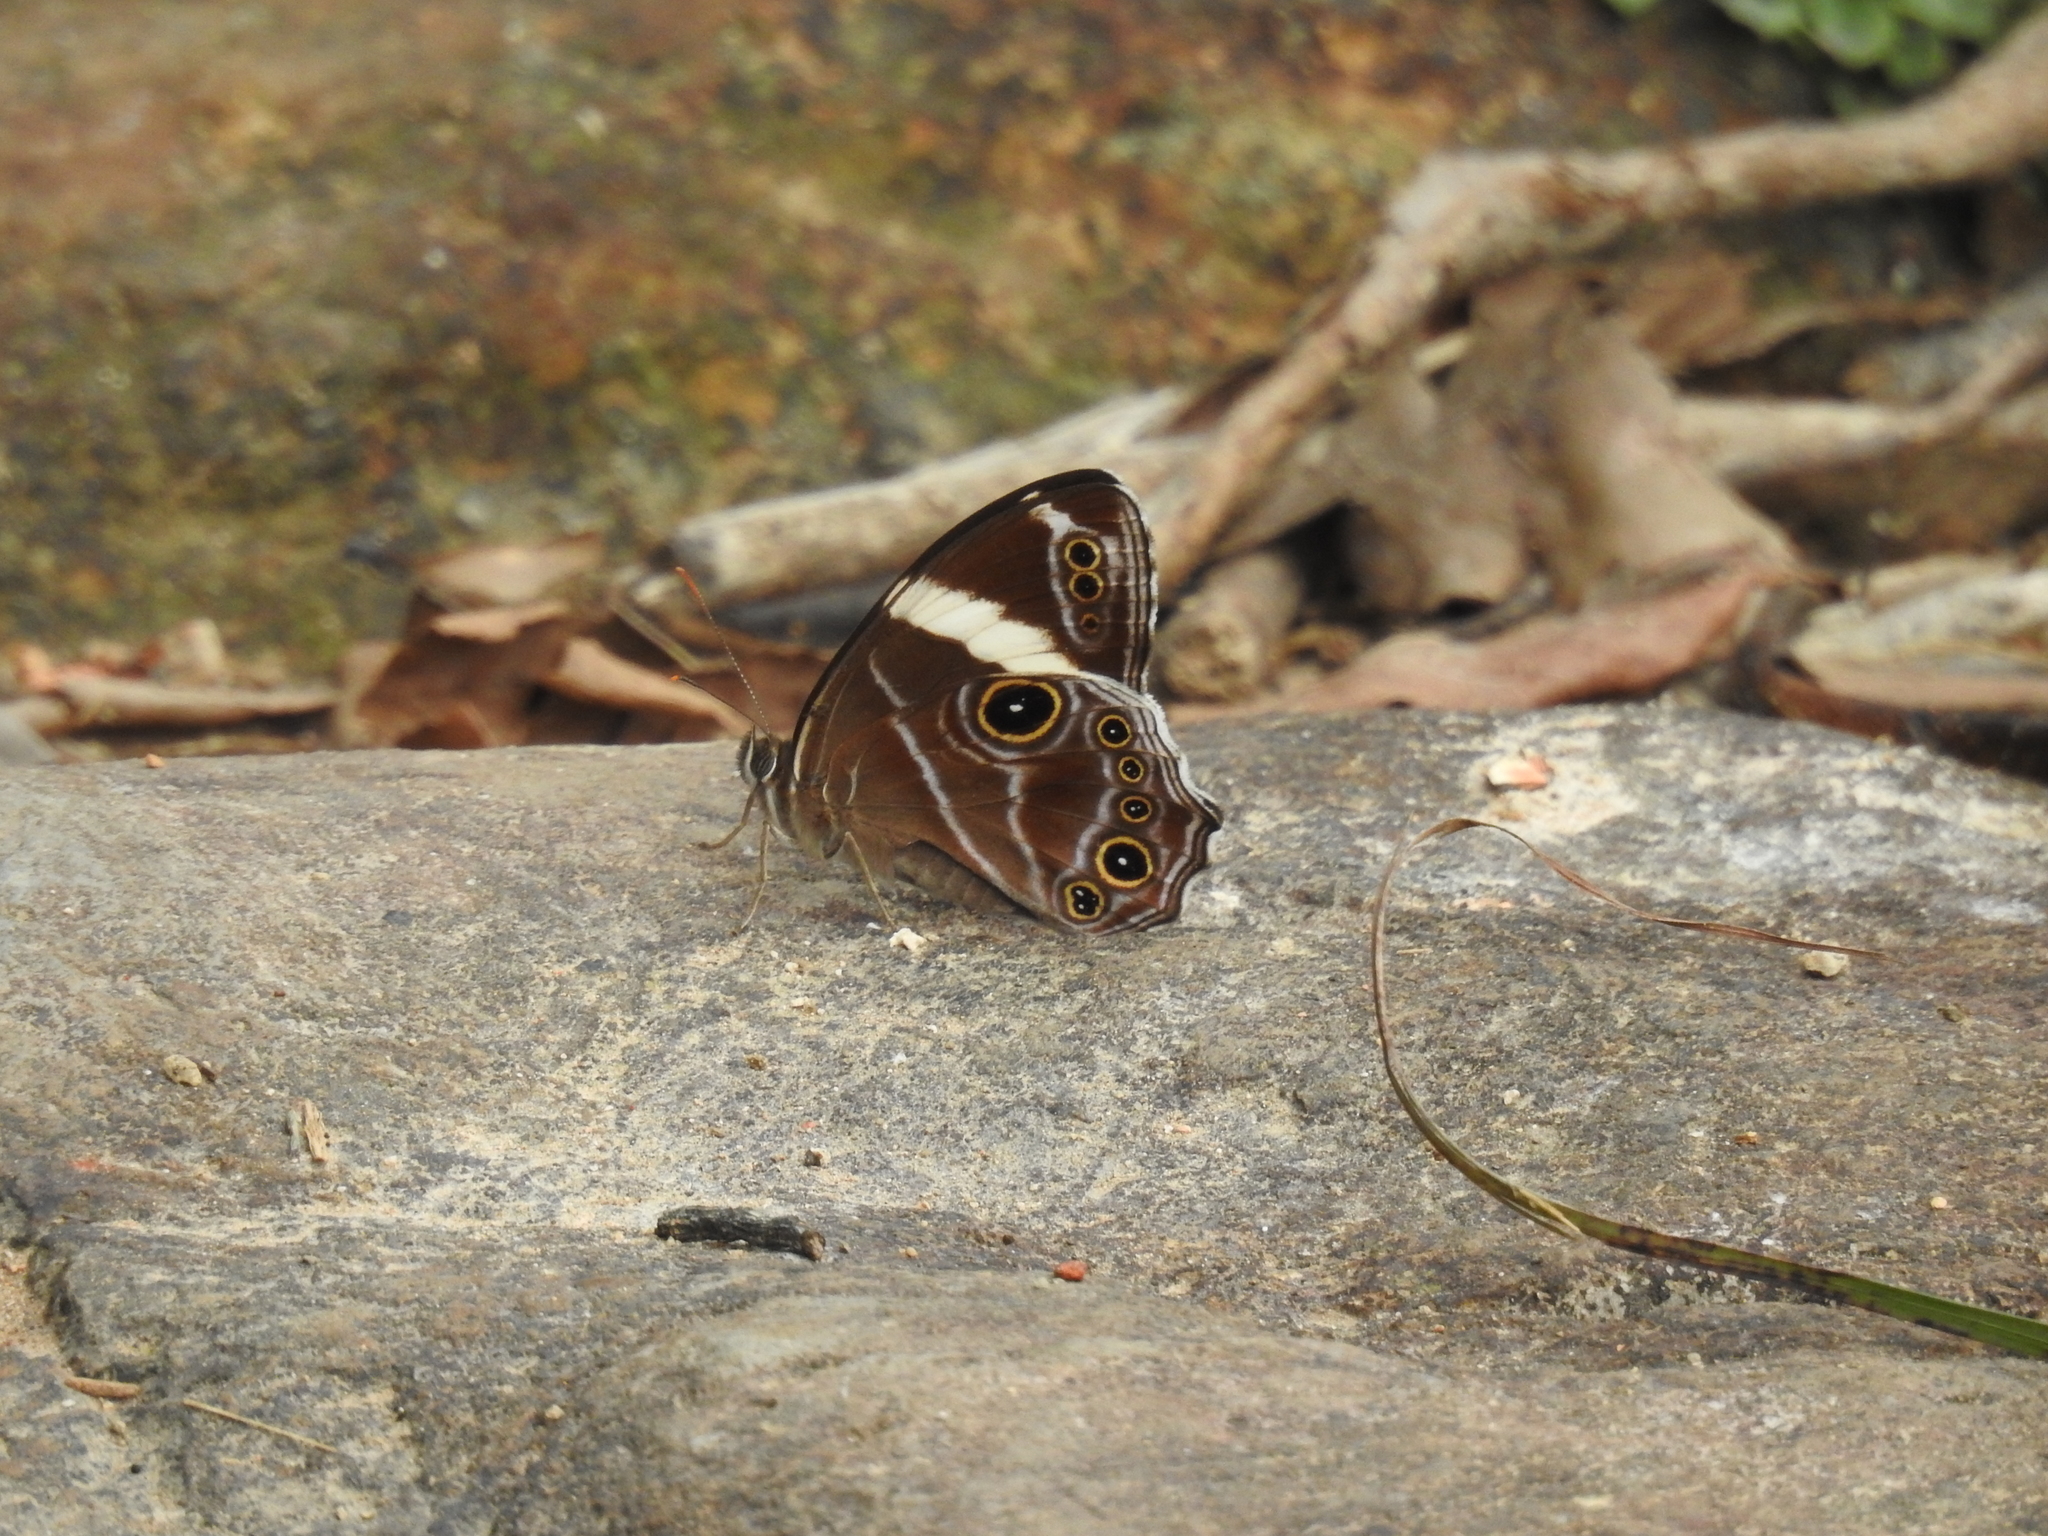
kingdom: Animalia
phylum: Arthropoda
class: Insecta
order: Lepidoptera
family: Nymphalidae
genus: Lethe
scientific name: Lethe confusa
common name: Banded treebrown
